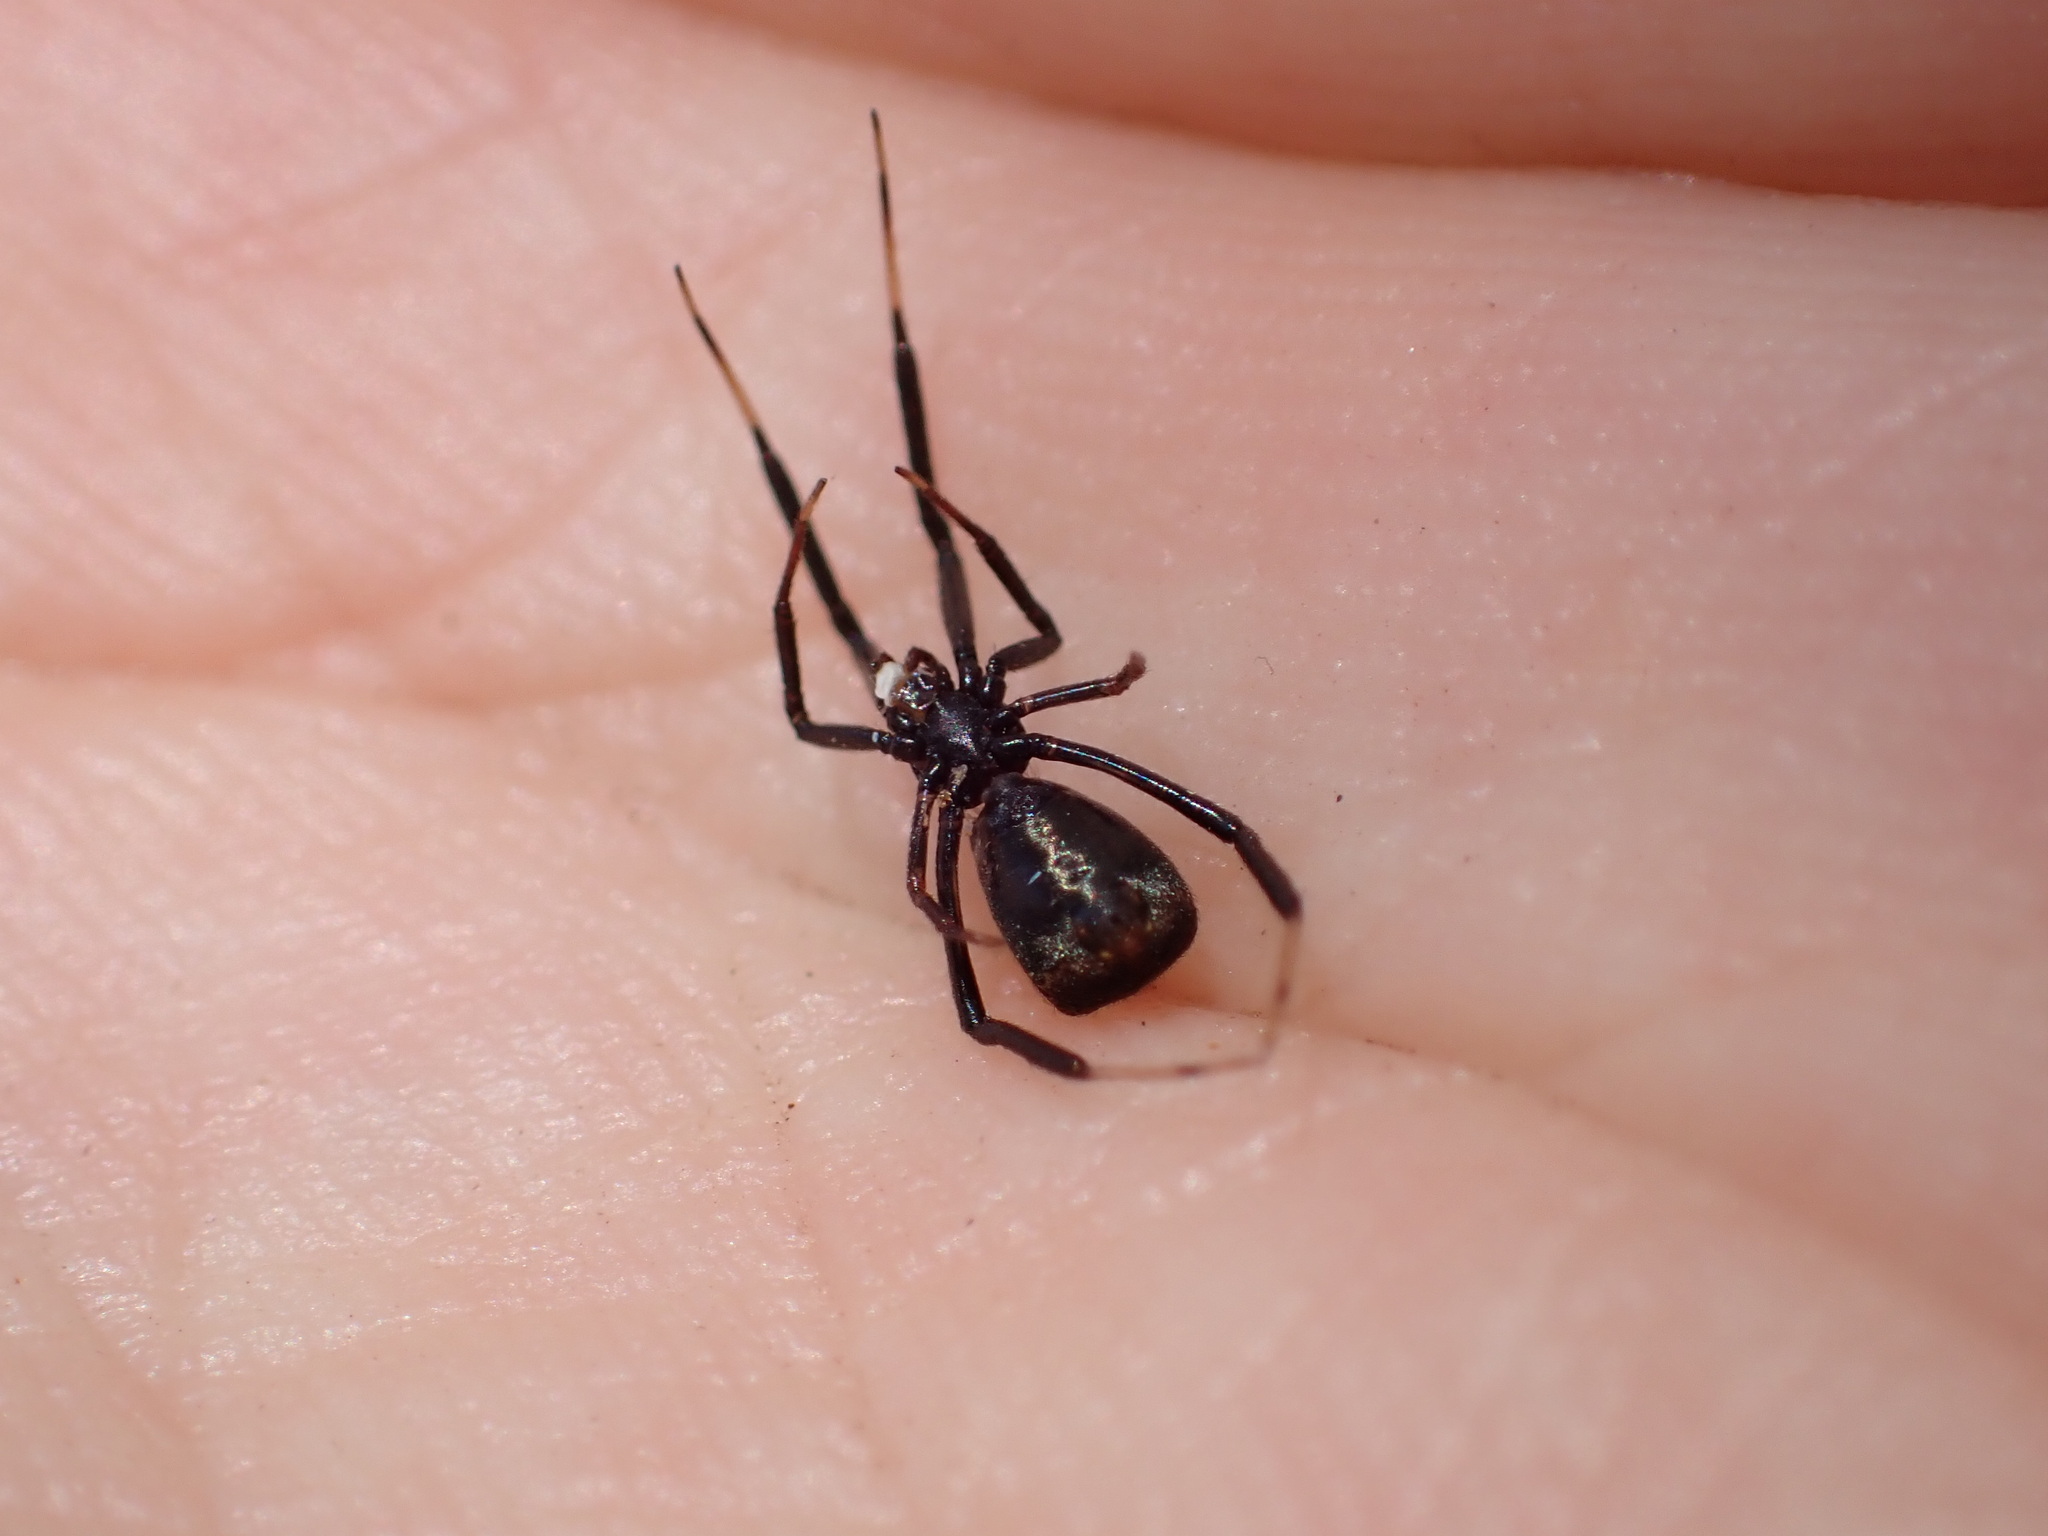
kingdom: Animalia
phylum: Arthropoda
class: Arachnida
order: Araneae
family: Theridiidae
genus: Episinus
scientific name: Episinus truncatus
